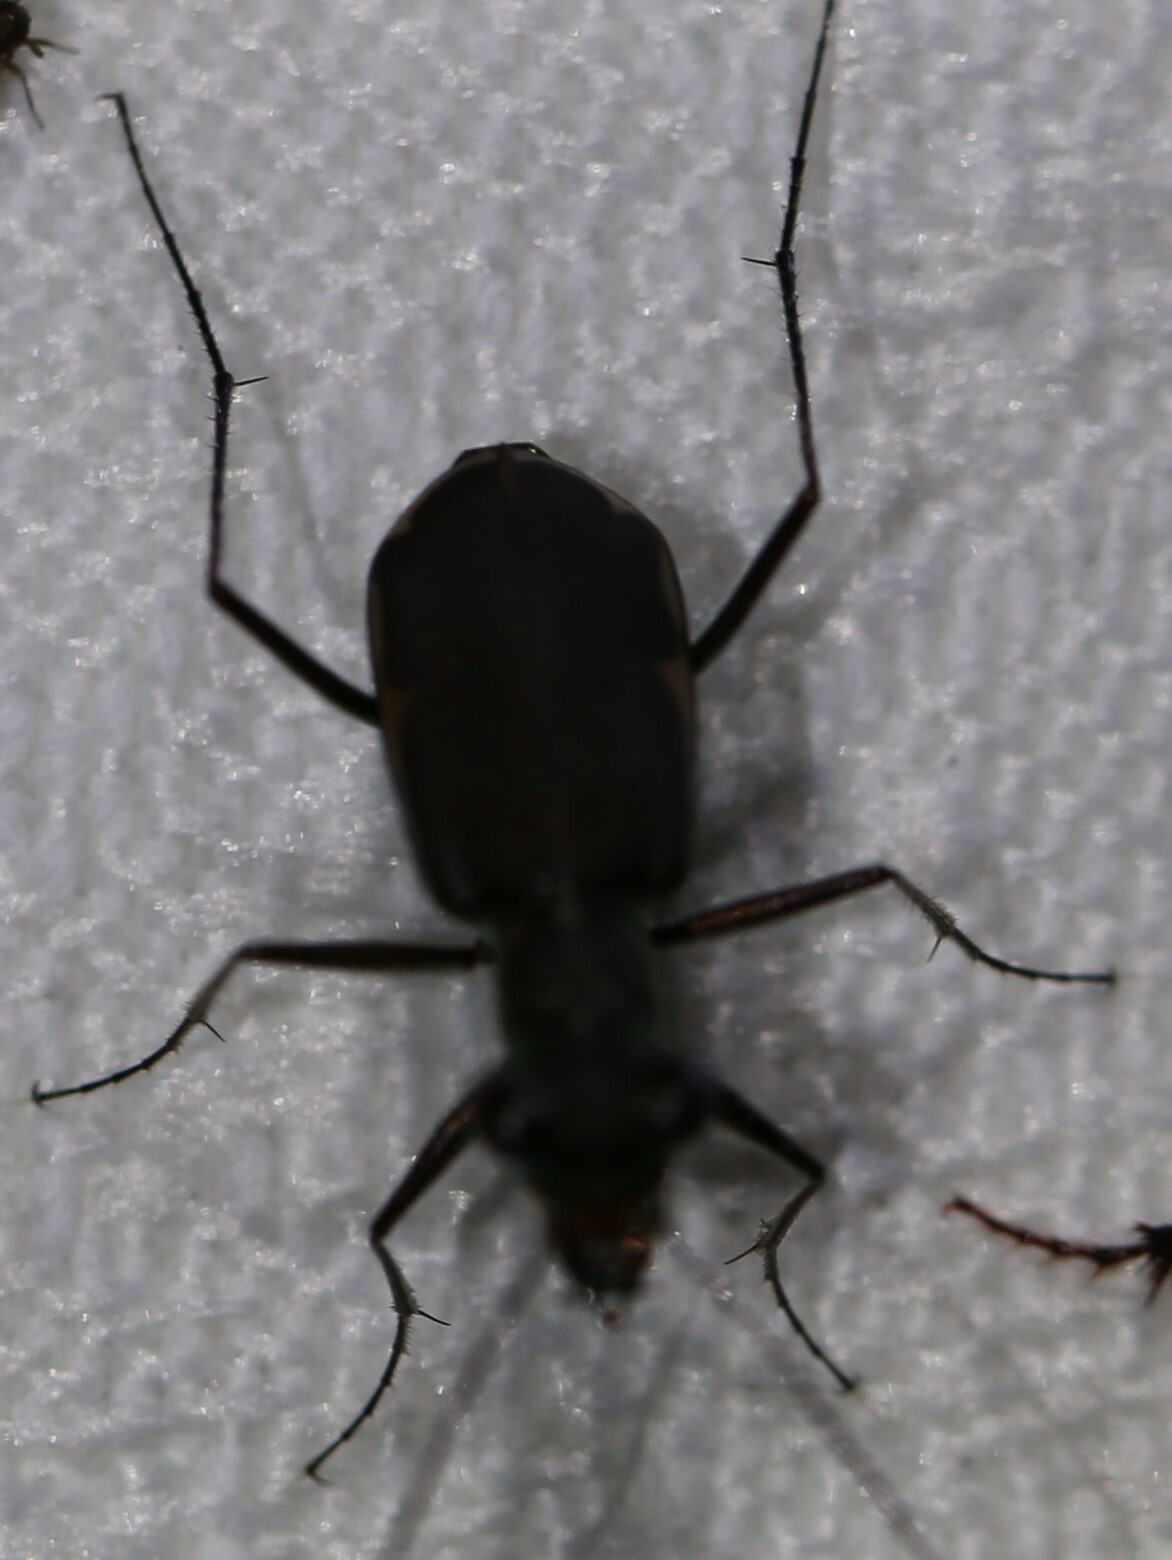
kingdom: Animalia
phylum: Arthropoda
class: Insecta
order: Coleoptera
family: Carabidae
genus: Myriochila
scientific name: Myriochila semicincta
